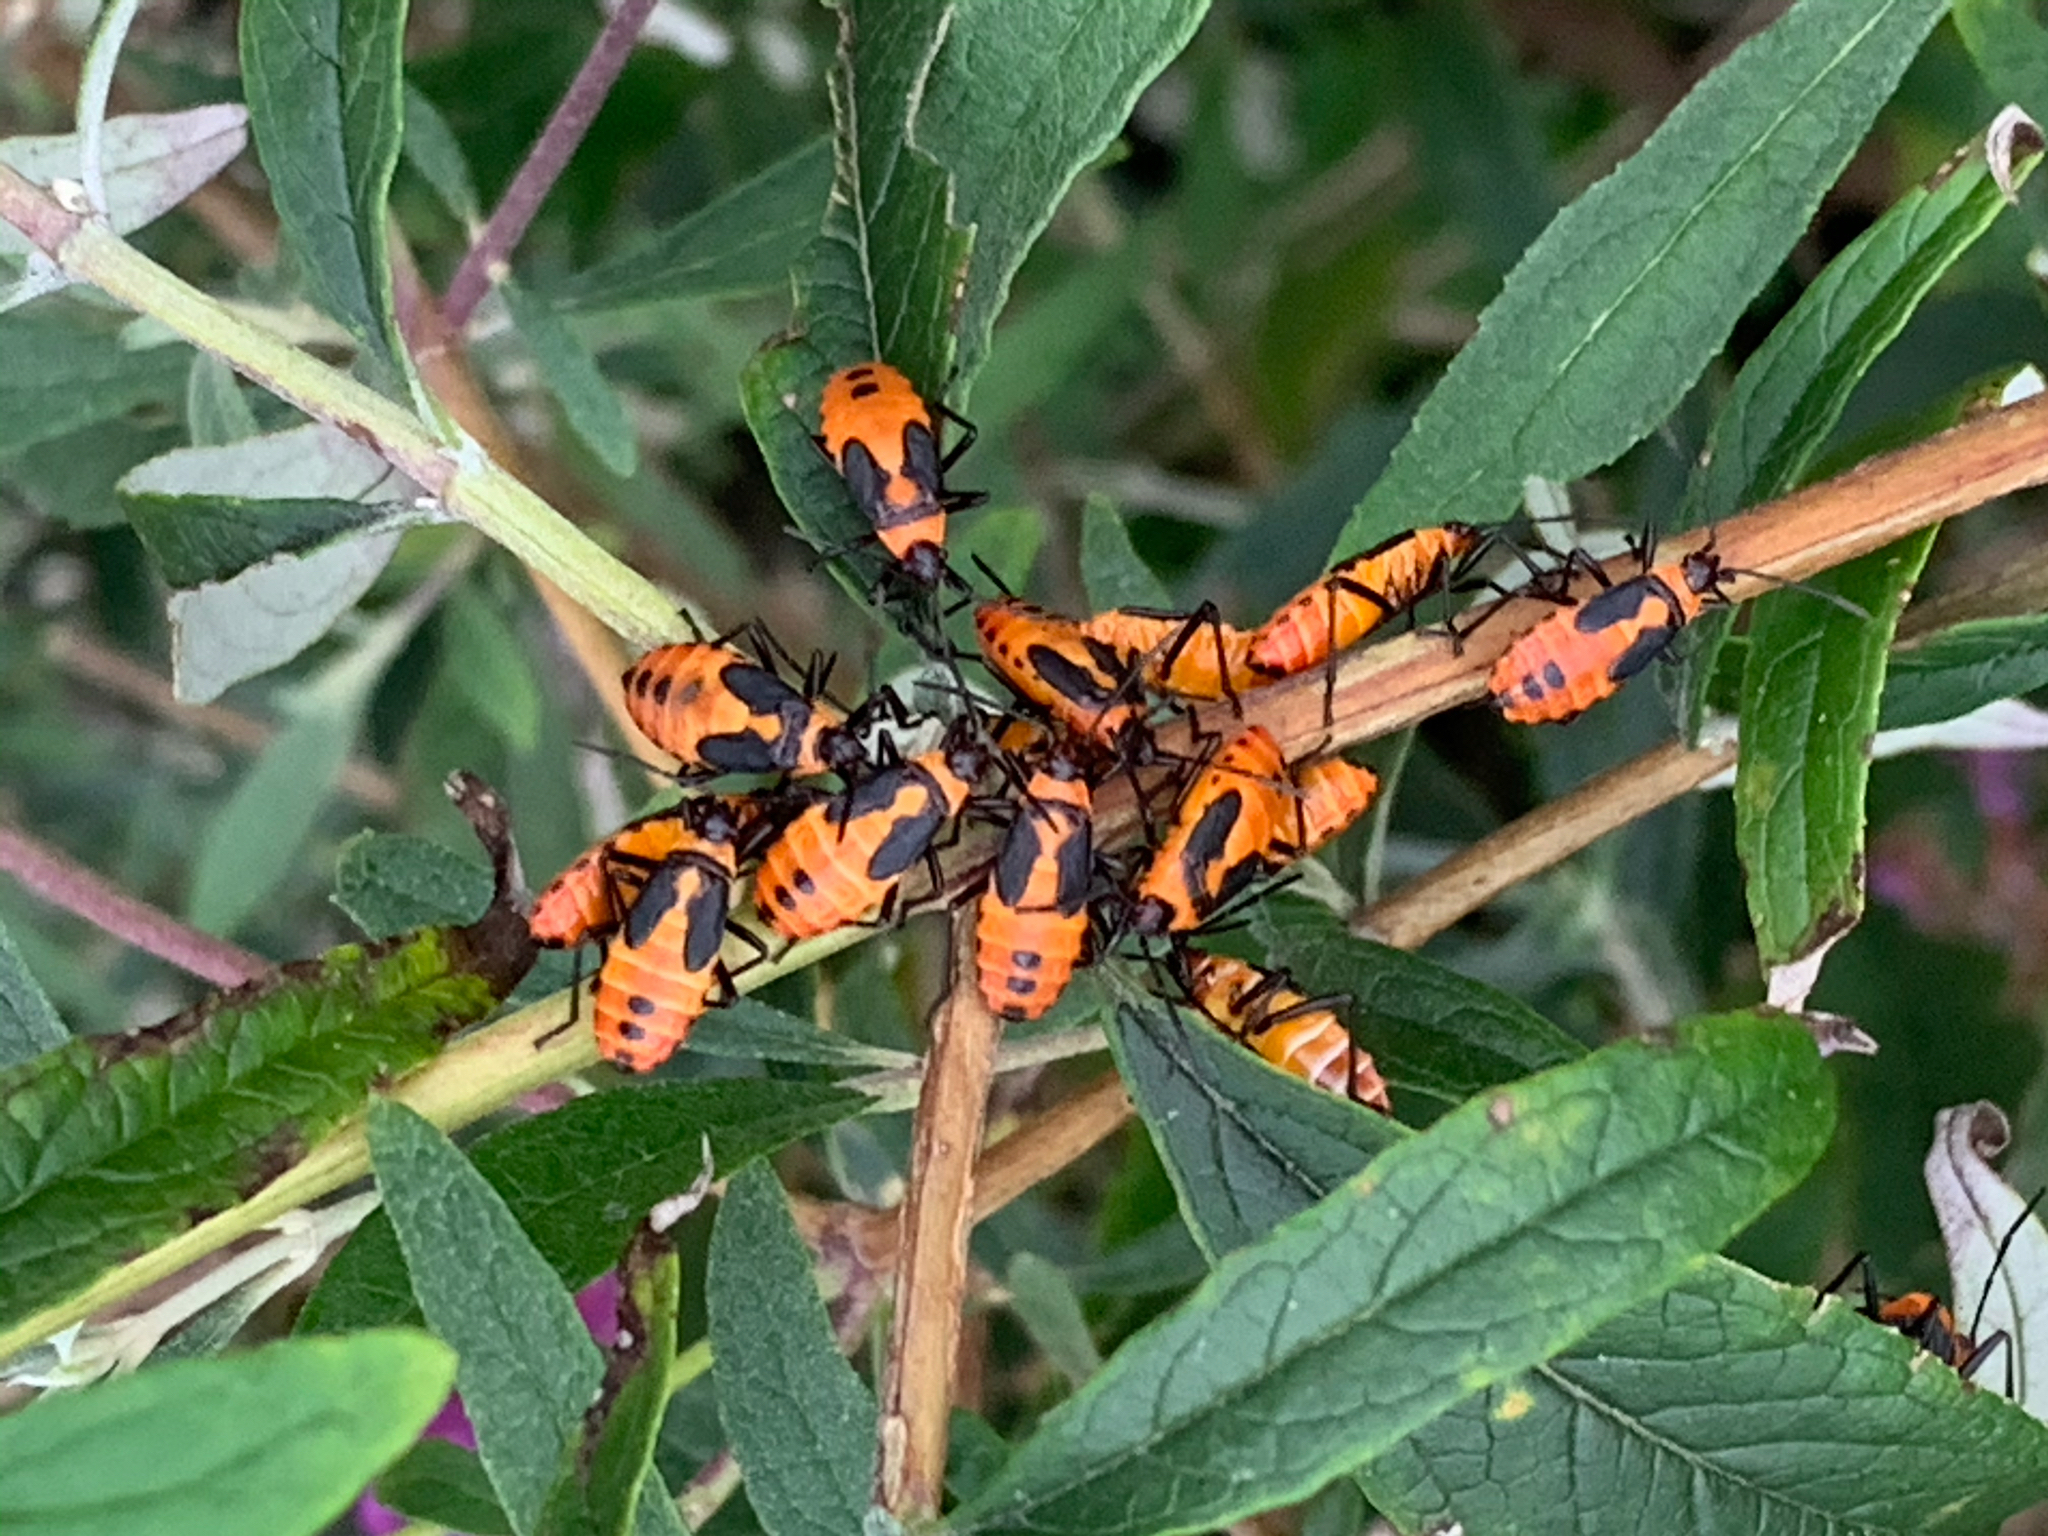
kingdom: Animalia
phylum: Arthropoda
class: Insecta
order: Hemiptera
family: Lygaeidae
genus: Oncopeltus
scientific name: Oncopeltus fasciatus
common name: Large milkweed bug
